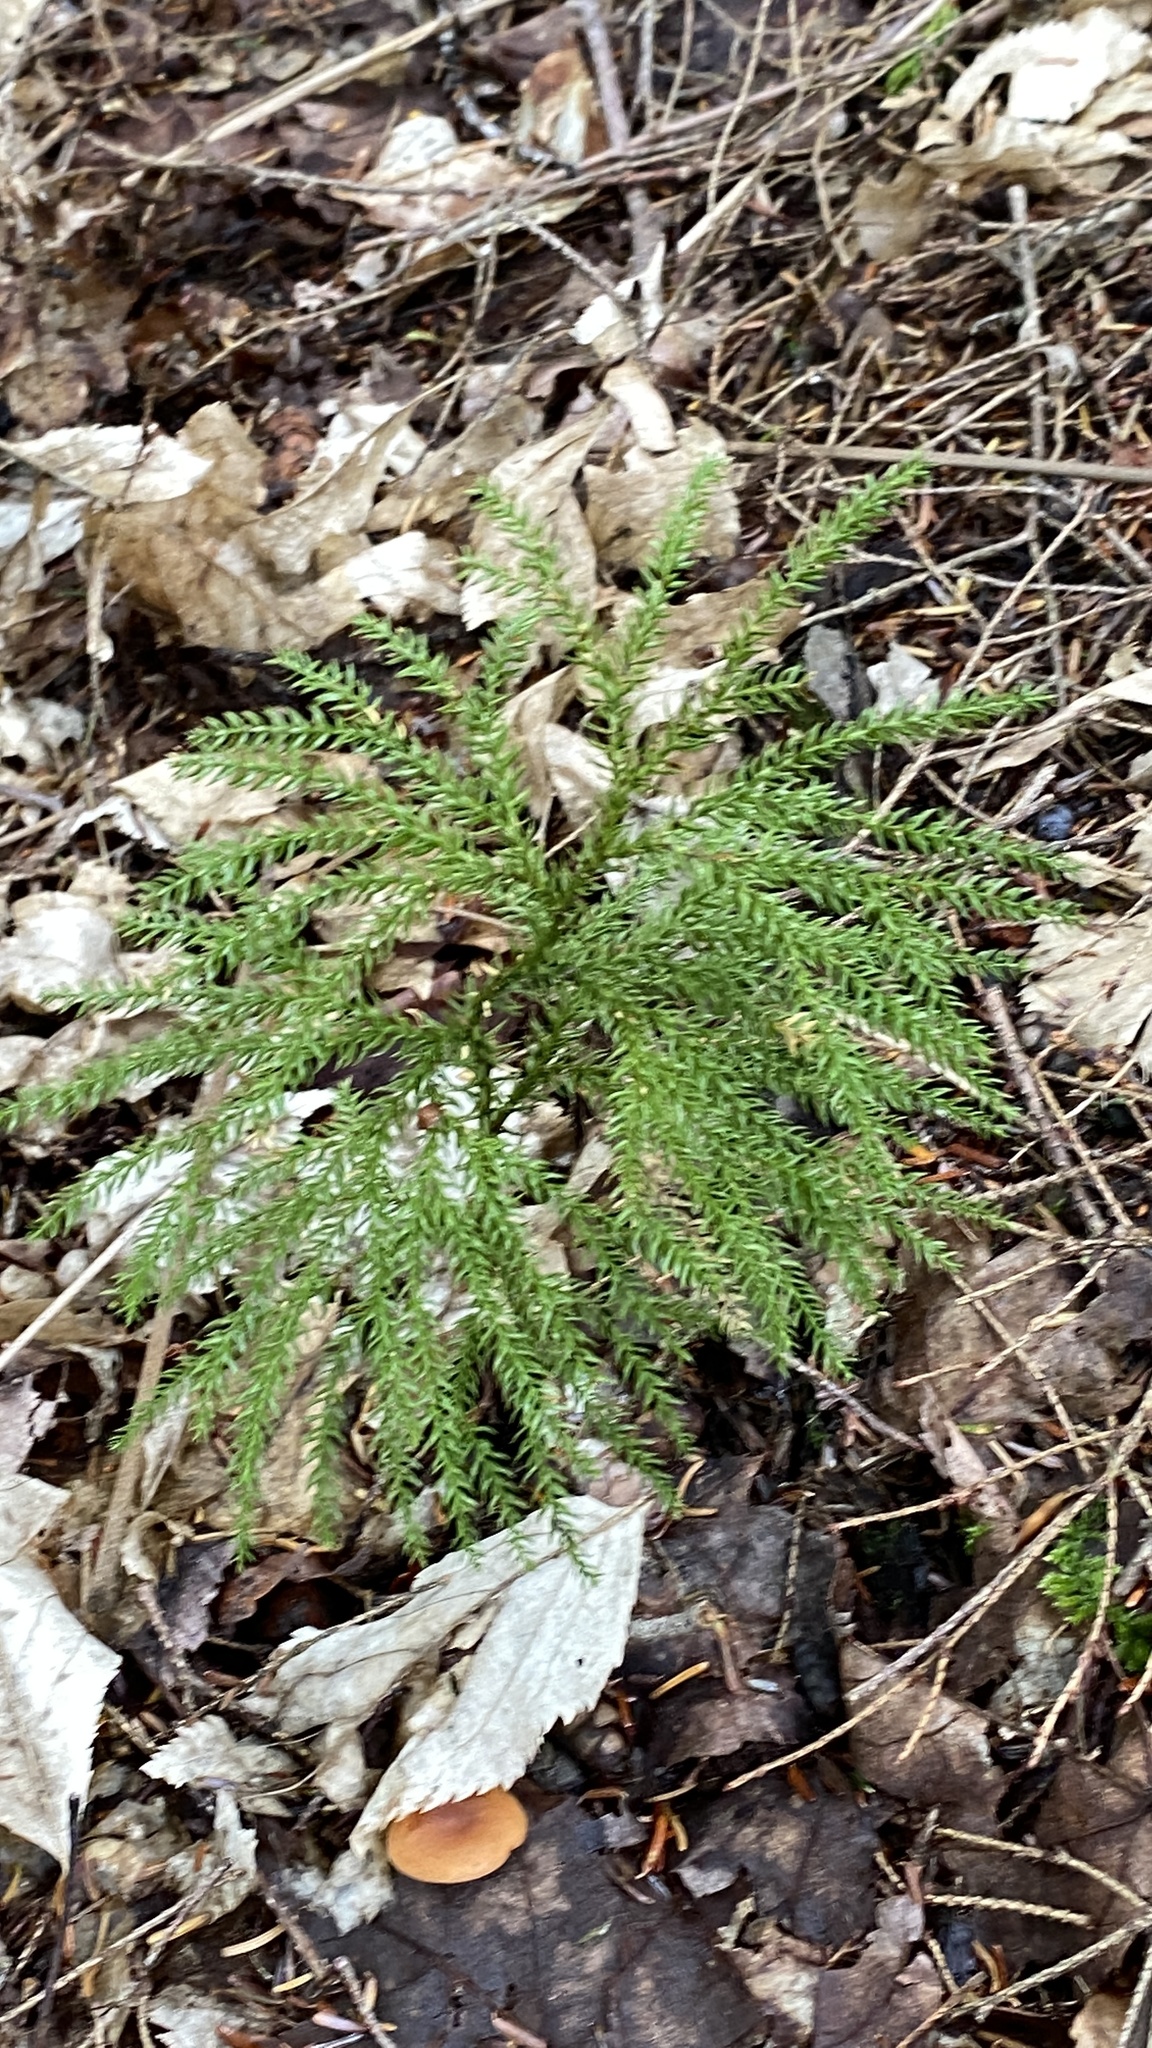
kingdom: Plantae
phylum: Tracheophyta
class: Lycopodiopsida
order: Lycopodiales
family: Lycopodiaceae
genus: Dendrolycopodium
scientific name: Dendrolycopodium dendroideum
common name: Northern tree-clubmoss
